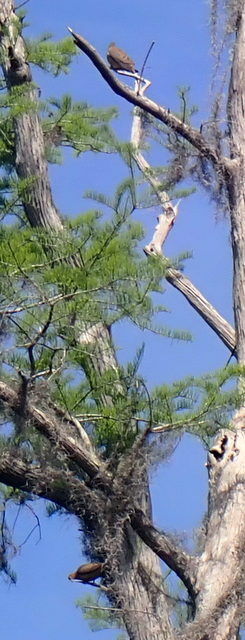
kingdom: Animalia
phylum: Chordata
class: Aves
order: Columbiformes
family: Columbidae
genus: Zenaida
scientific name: Zenaida macroura
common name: Mourning dove
